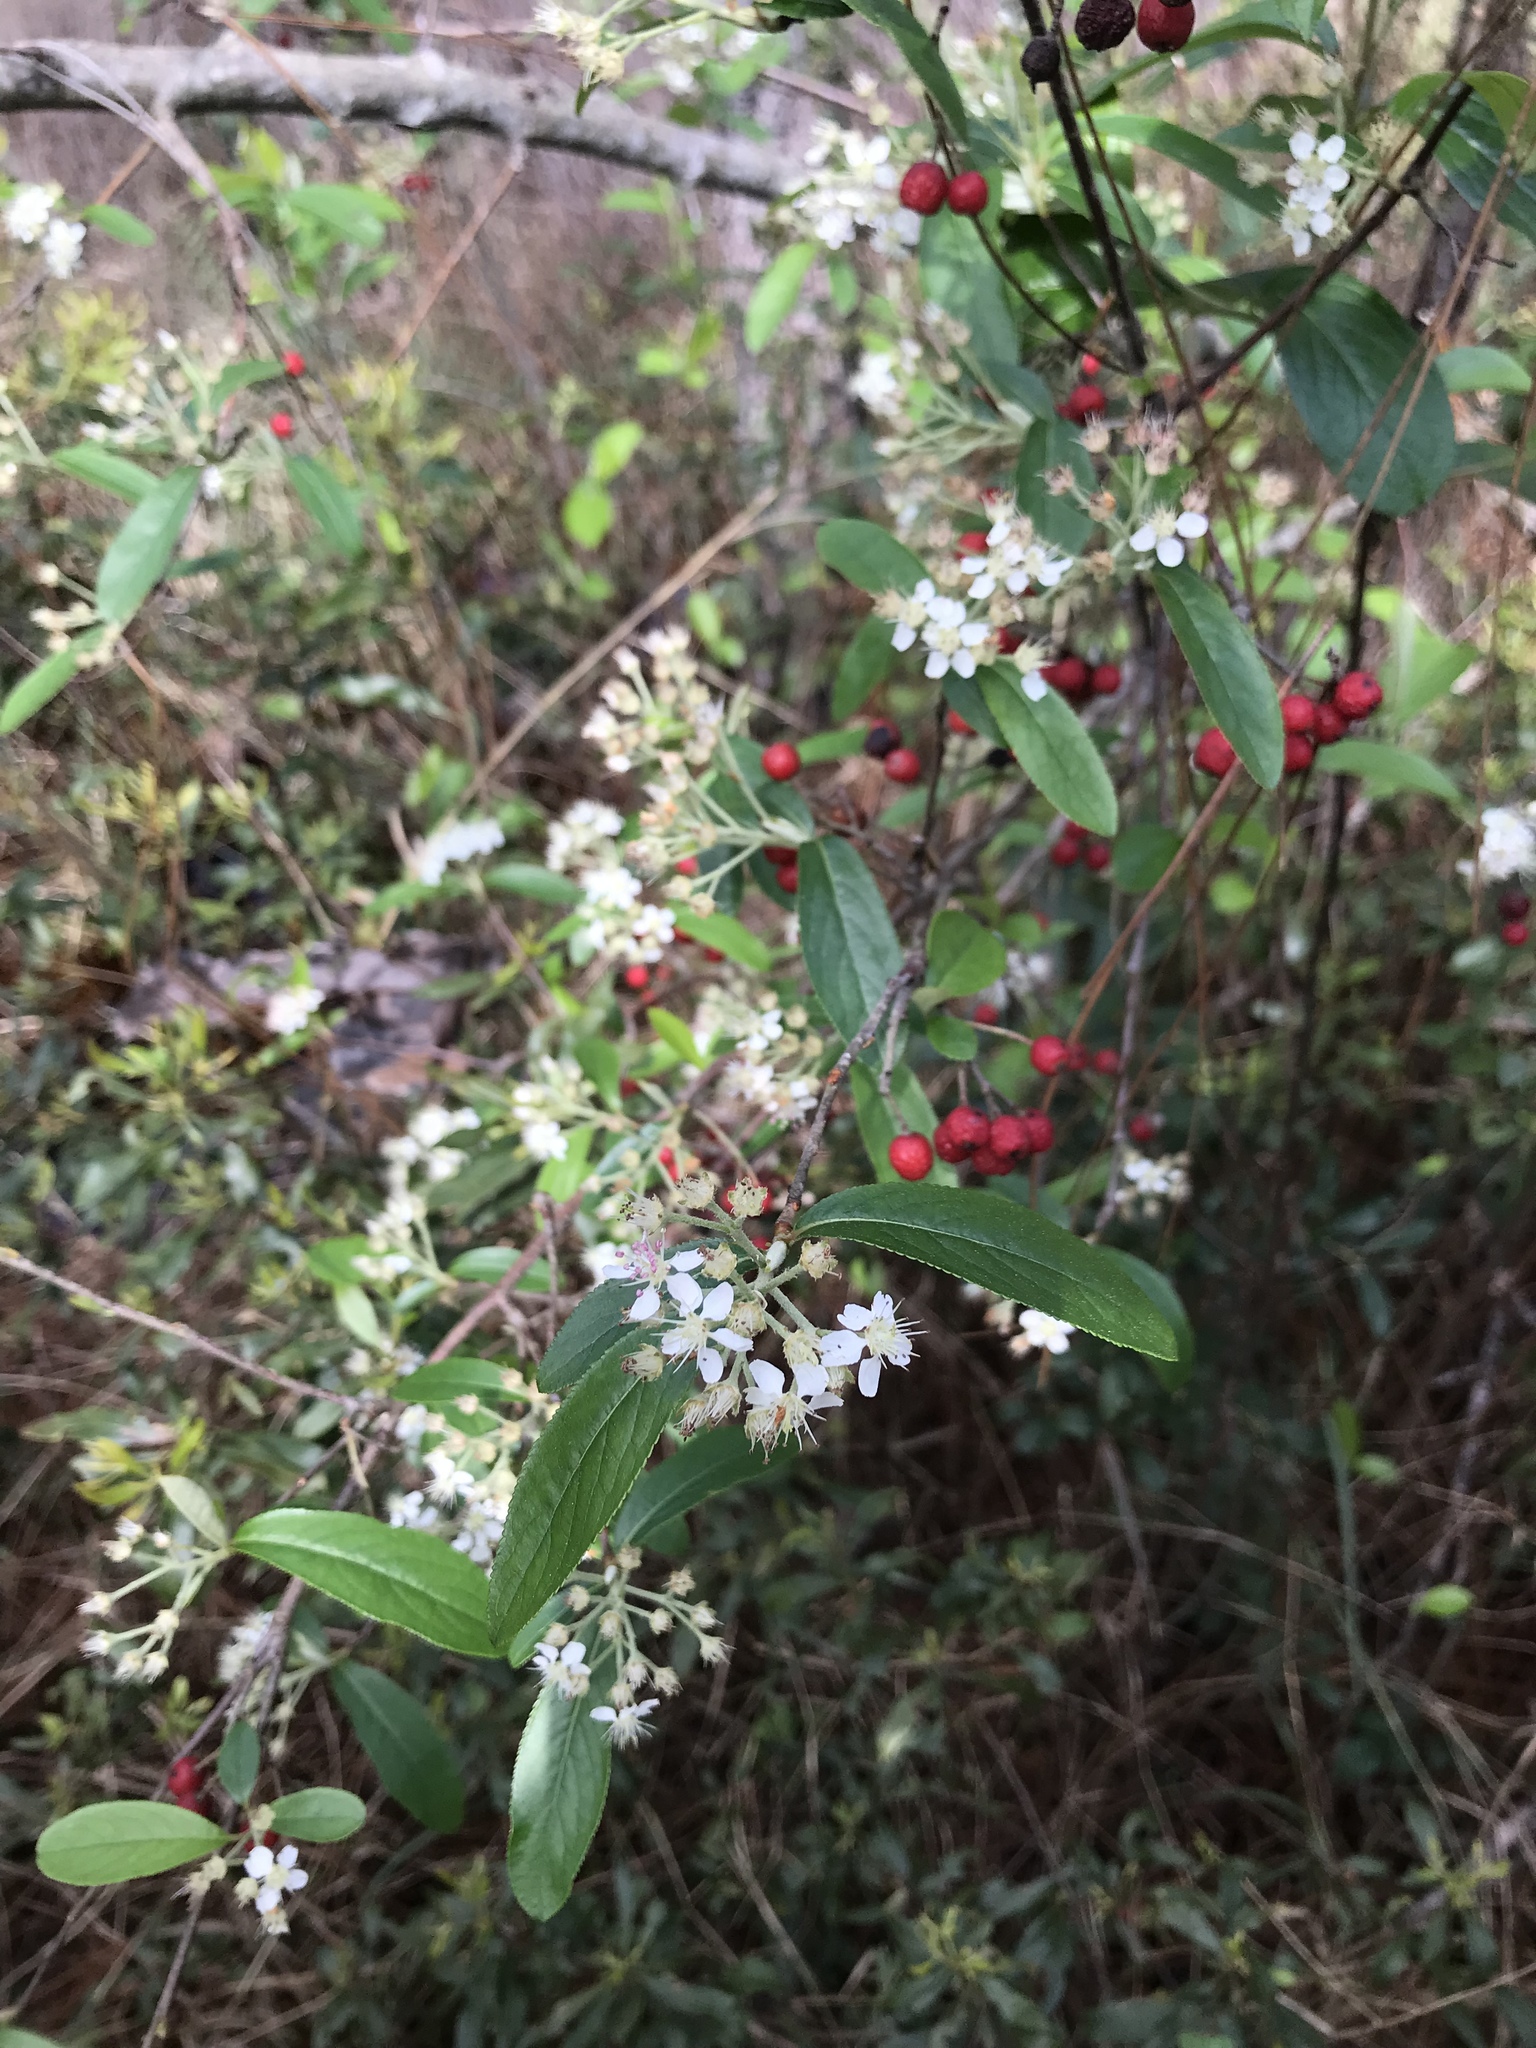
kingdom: Plantae
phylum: Tracheophyta
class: Magnoliopsida
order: Rosales
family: Rosaceae
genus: Aronia
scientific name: Aronia arbutifolia
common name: Red chokeberry
